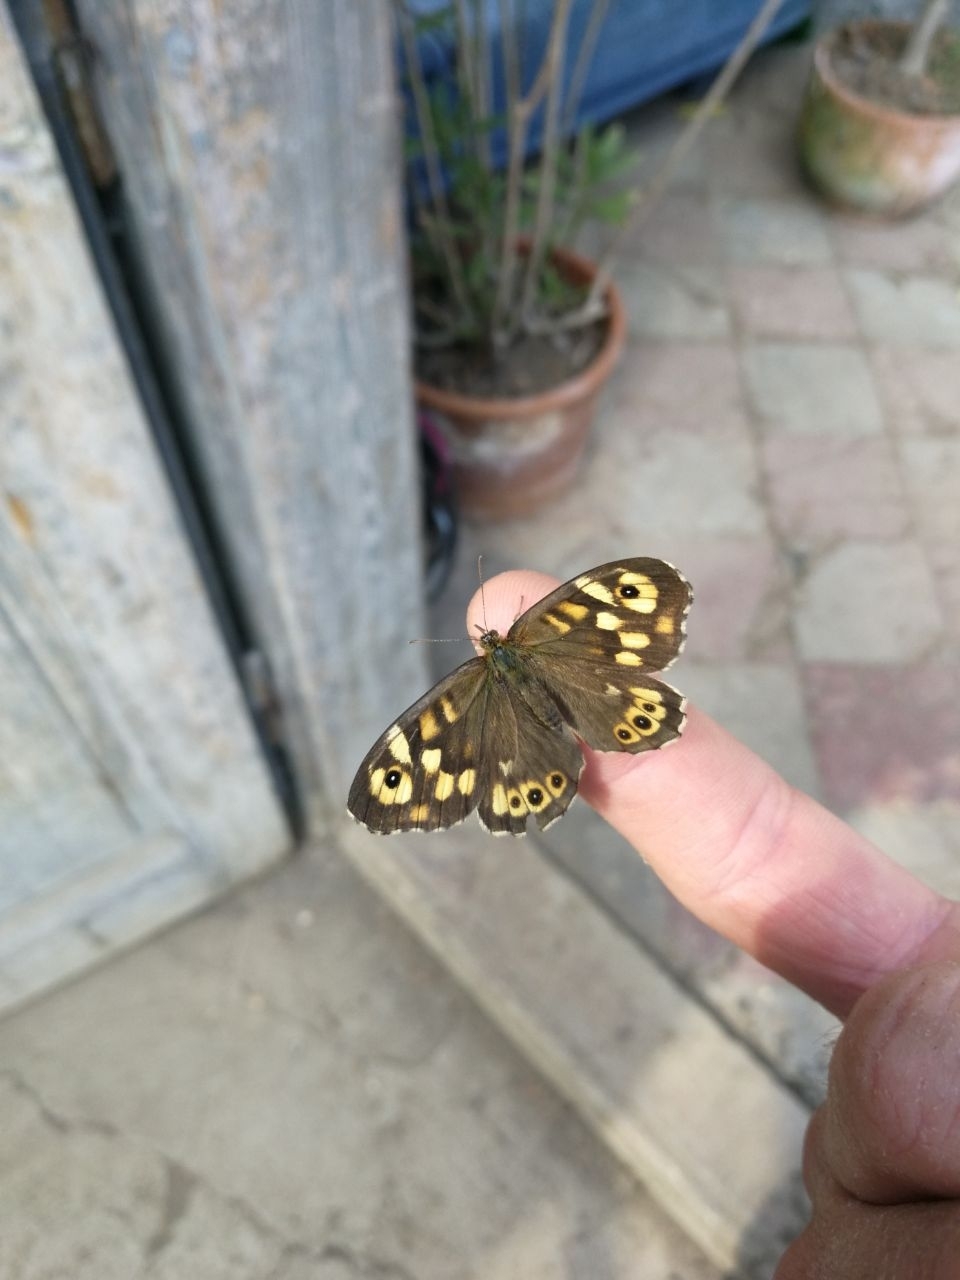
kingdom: Animalia
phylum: Arthropoda
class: Insecta
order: Lepidoptera
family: Nymphalidae
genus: Pararge
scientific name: Pararge aegeria
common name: Speckled wood
